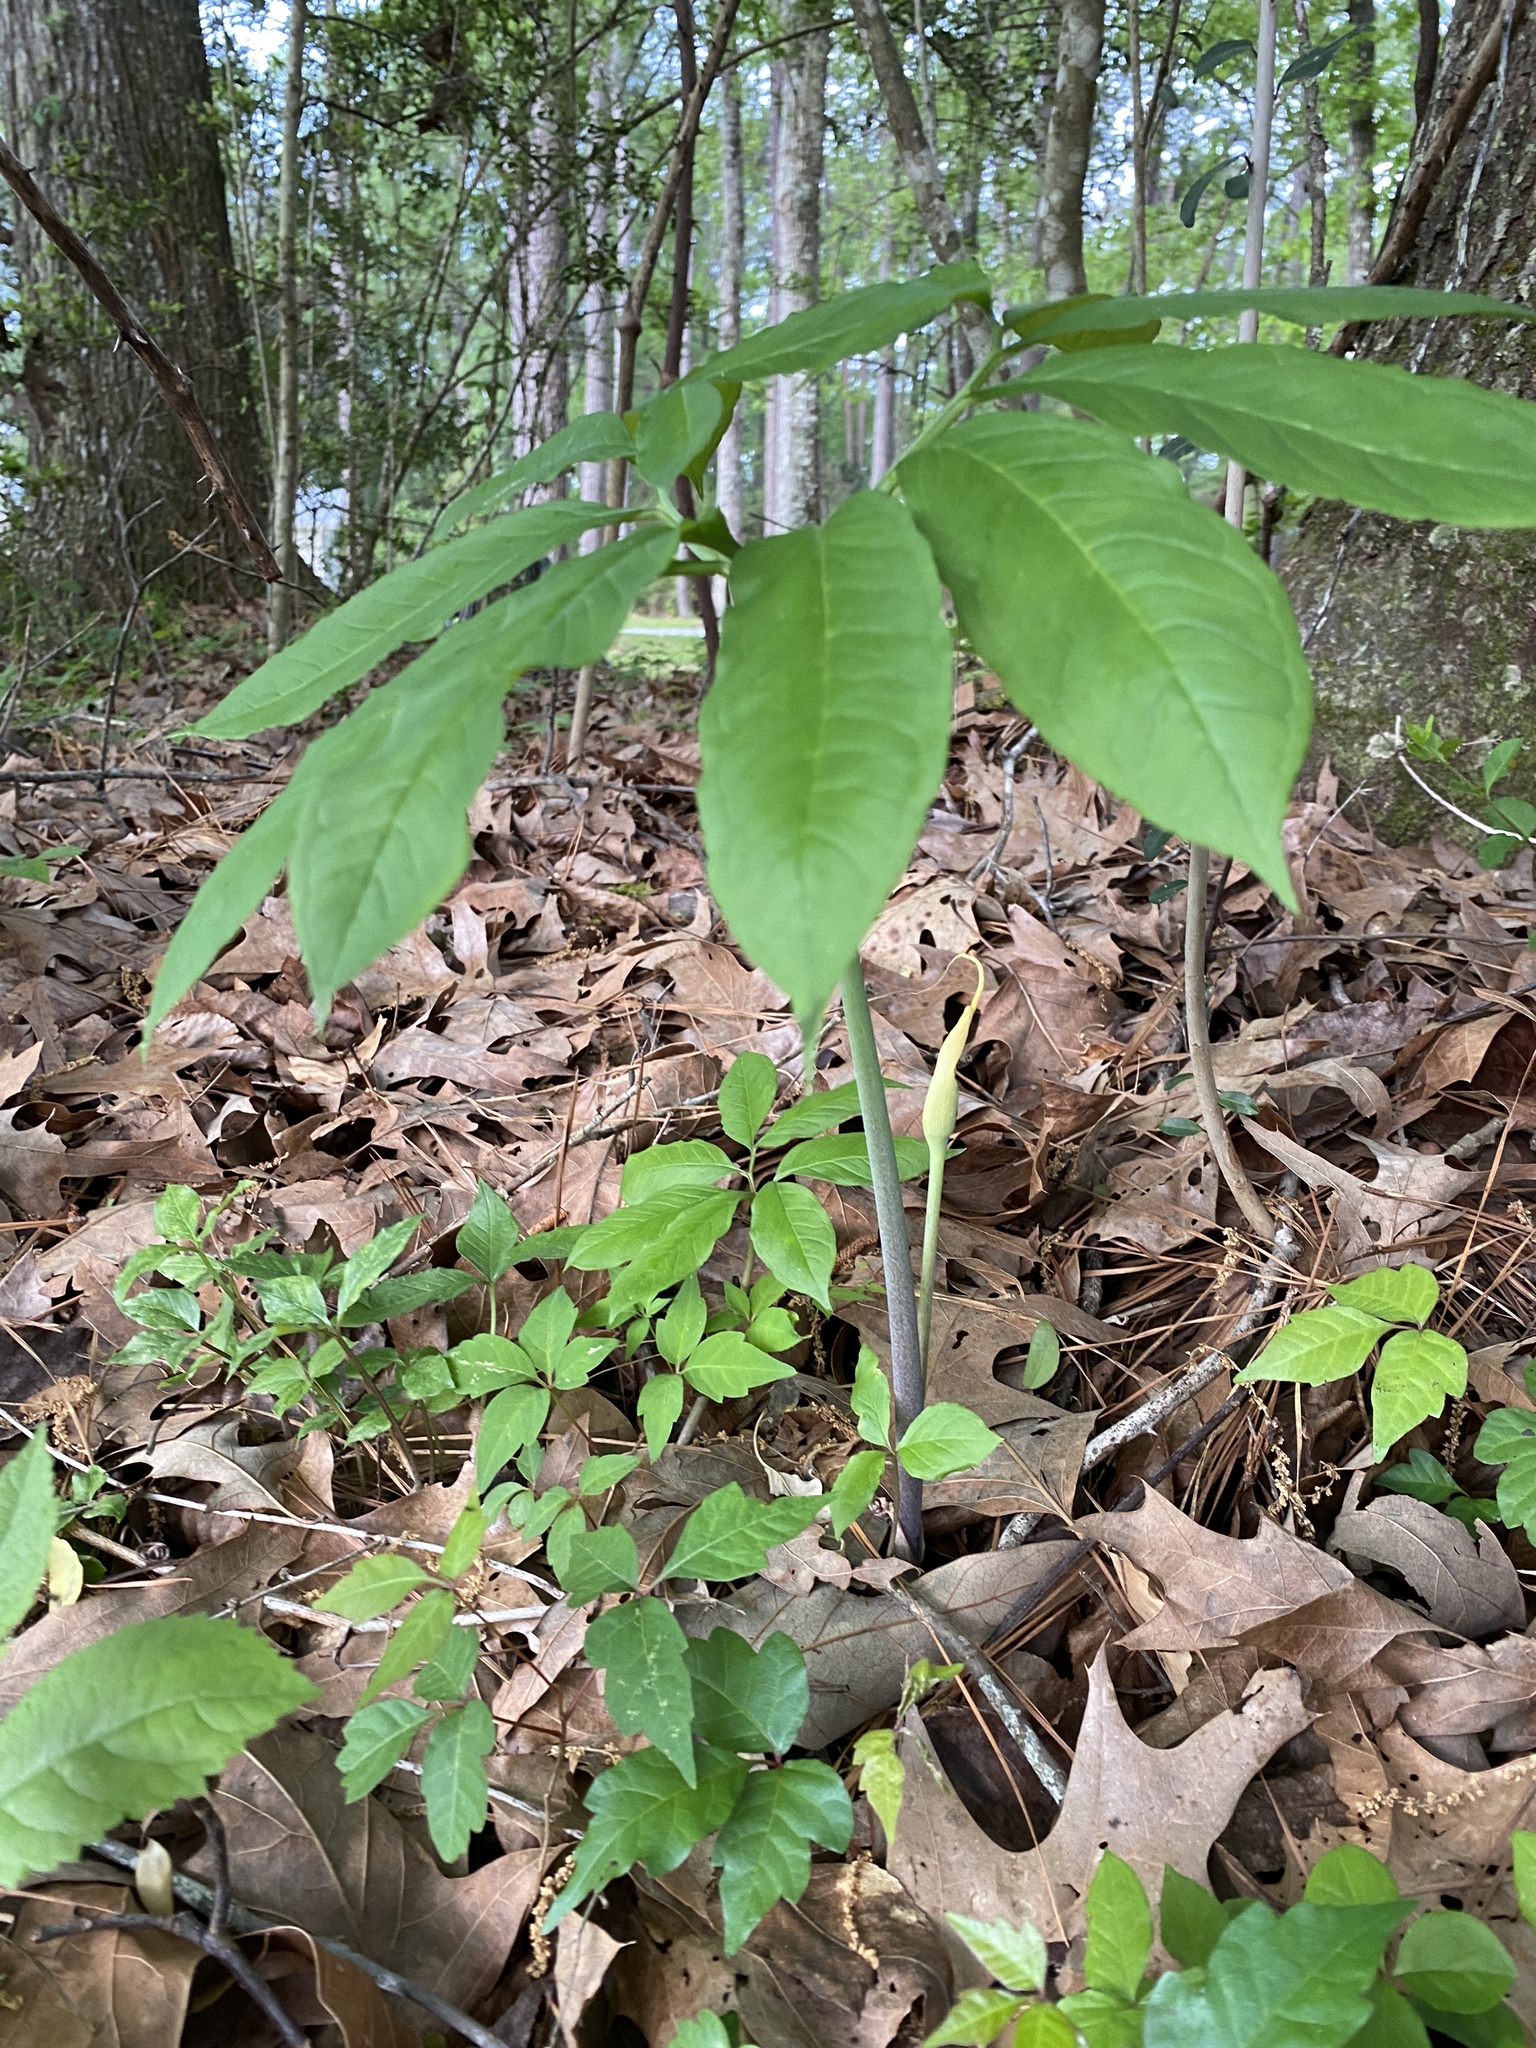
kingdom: Plantae
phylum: Tracheophyta
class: Liliopsida
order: Alismatales
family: Araceae
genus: Arisaema
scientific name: Arisaema dracontium
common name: Dragon-arum
